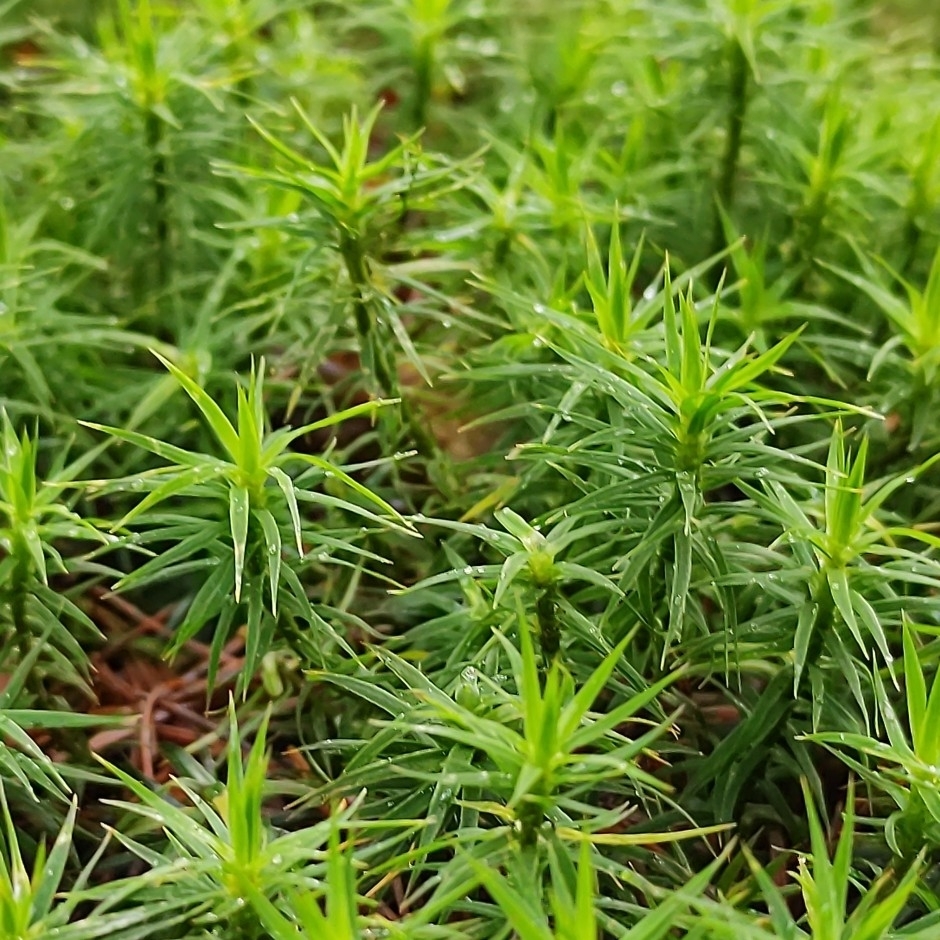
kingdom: Plantae
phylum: Bryophyta
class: Polytrichopsida
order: Polytrichales
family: Polytrichaceae
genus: Polytrichum
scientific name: Polytrichum formosum
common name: Bank haircap moss
